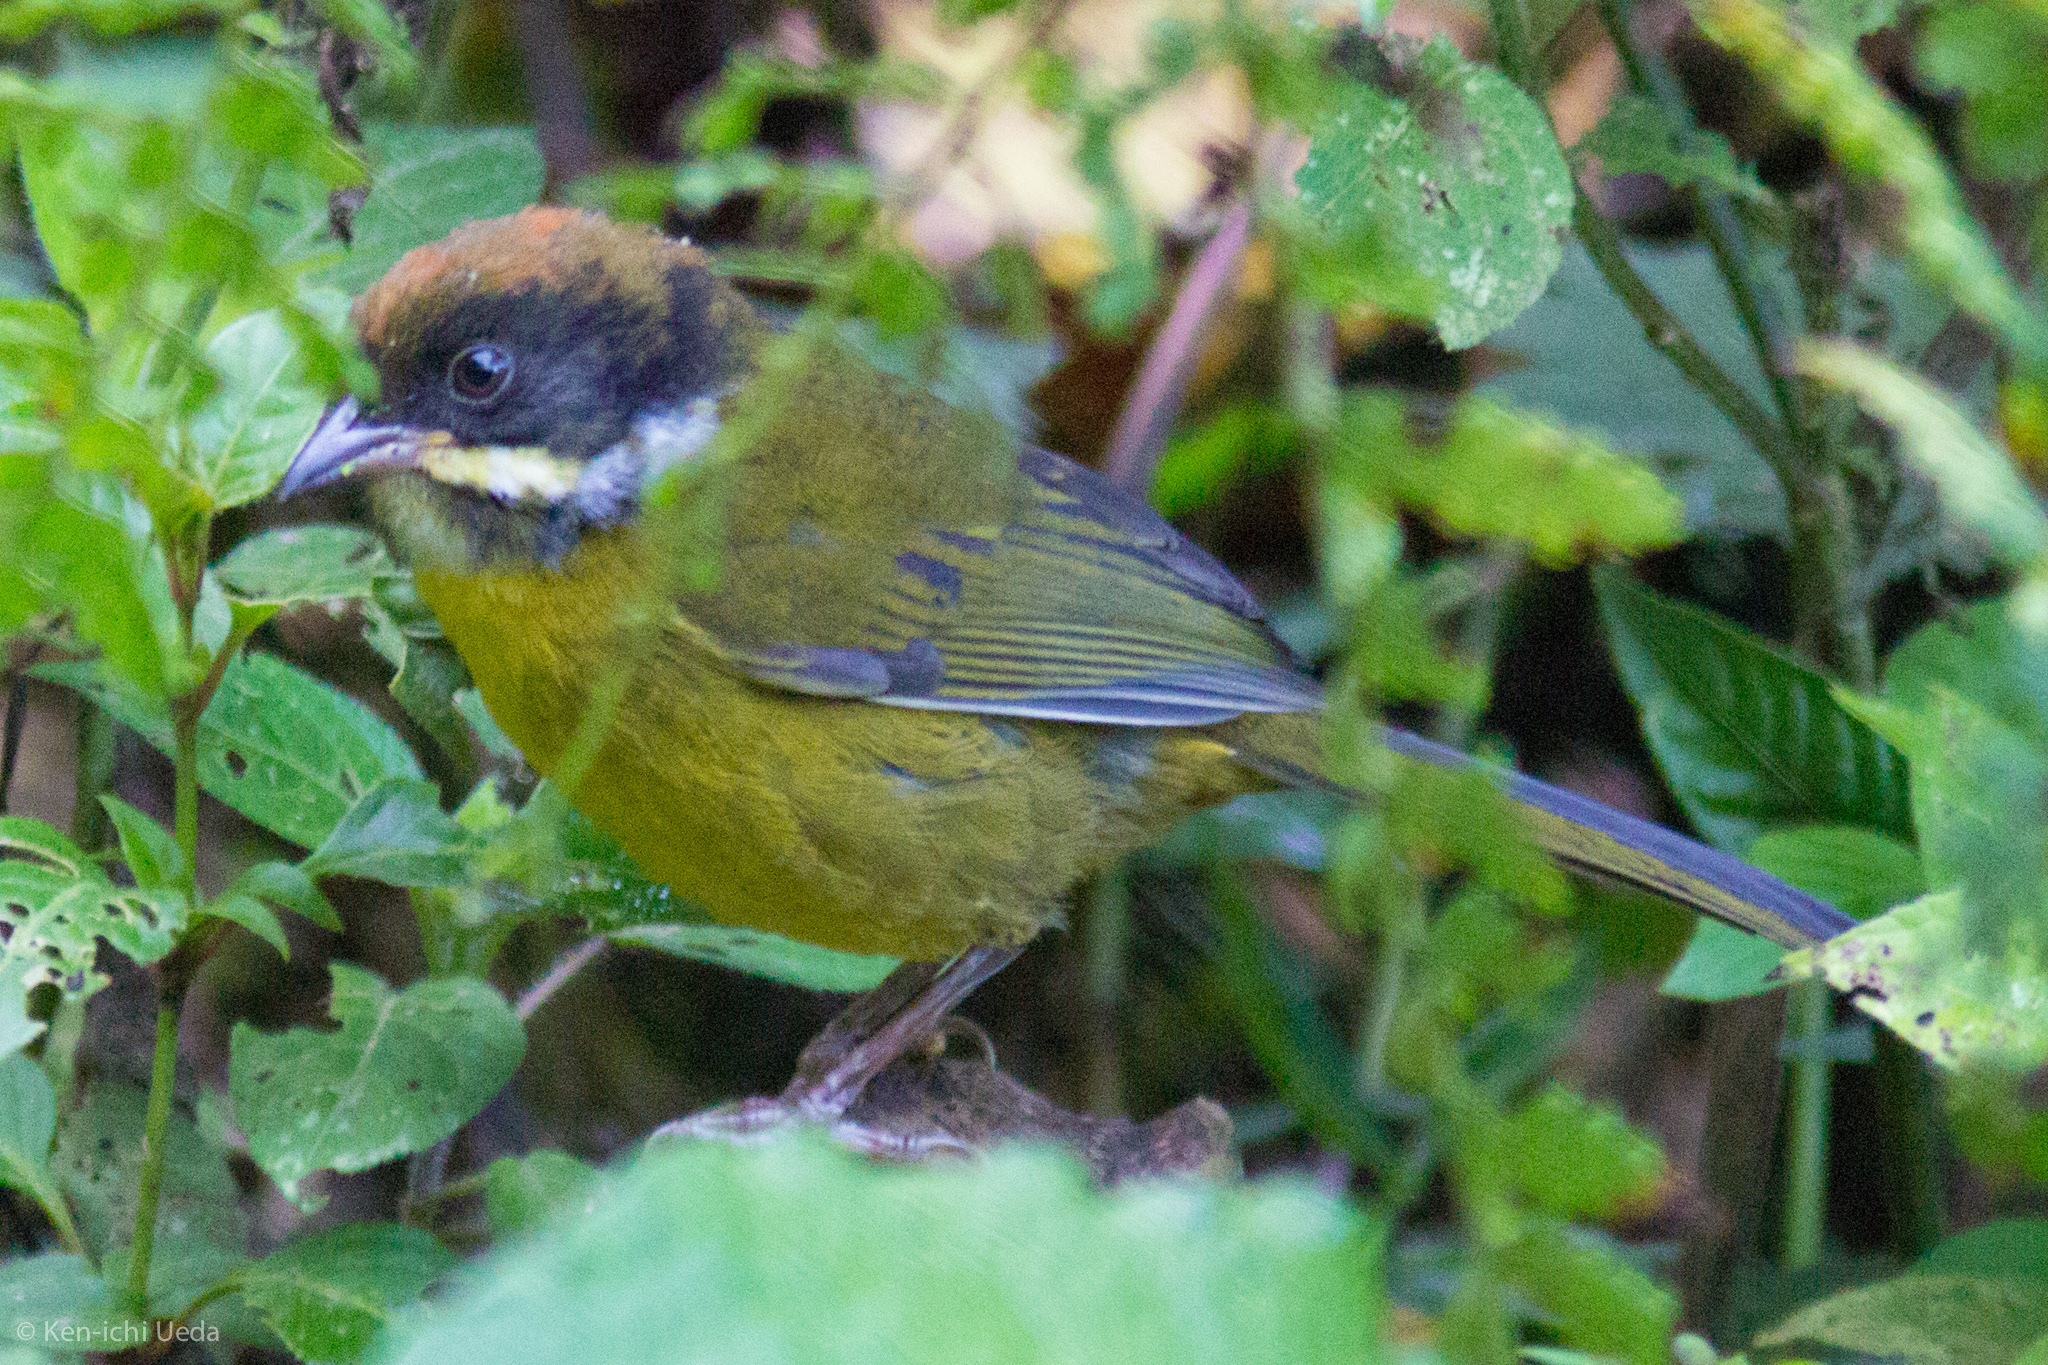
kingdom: Animalia
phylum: Chordata
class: Aves
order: Passeriformes
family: Passerellidae
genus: Atlapetes
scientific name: Atlapetes albofrenatus
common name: Moustached brushfinch
